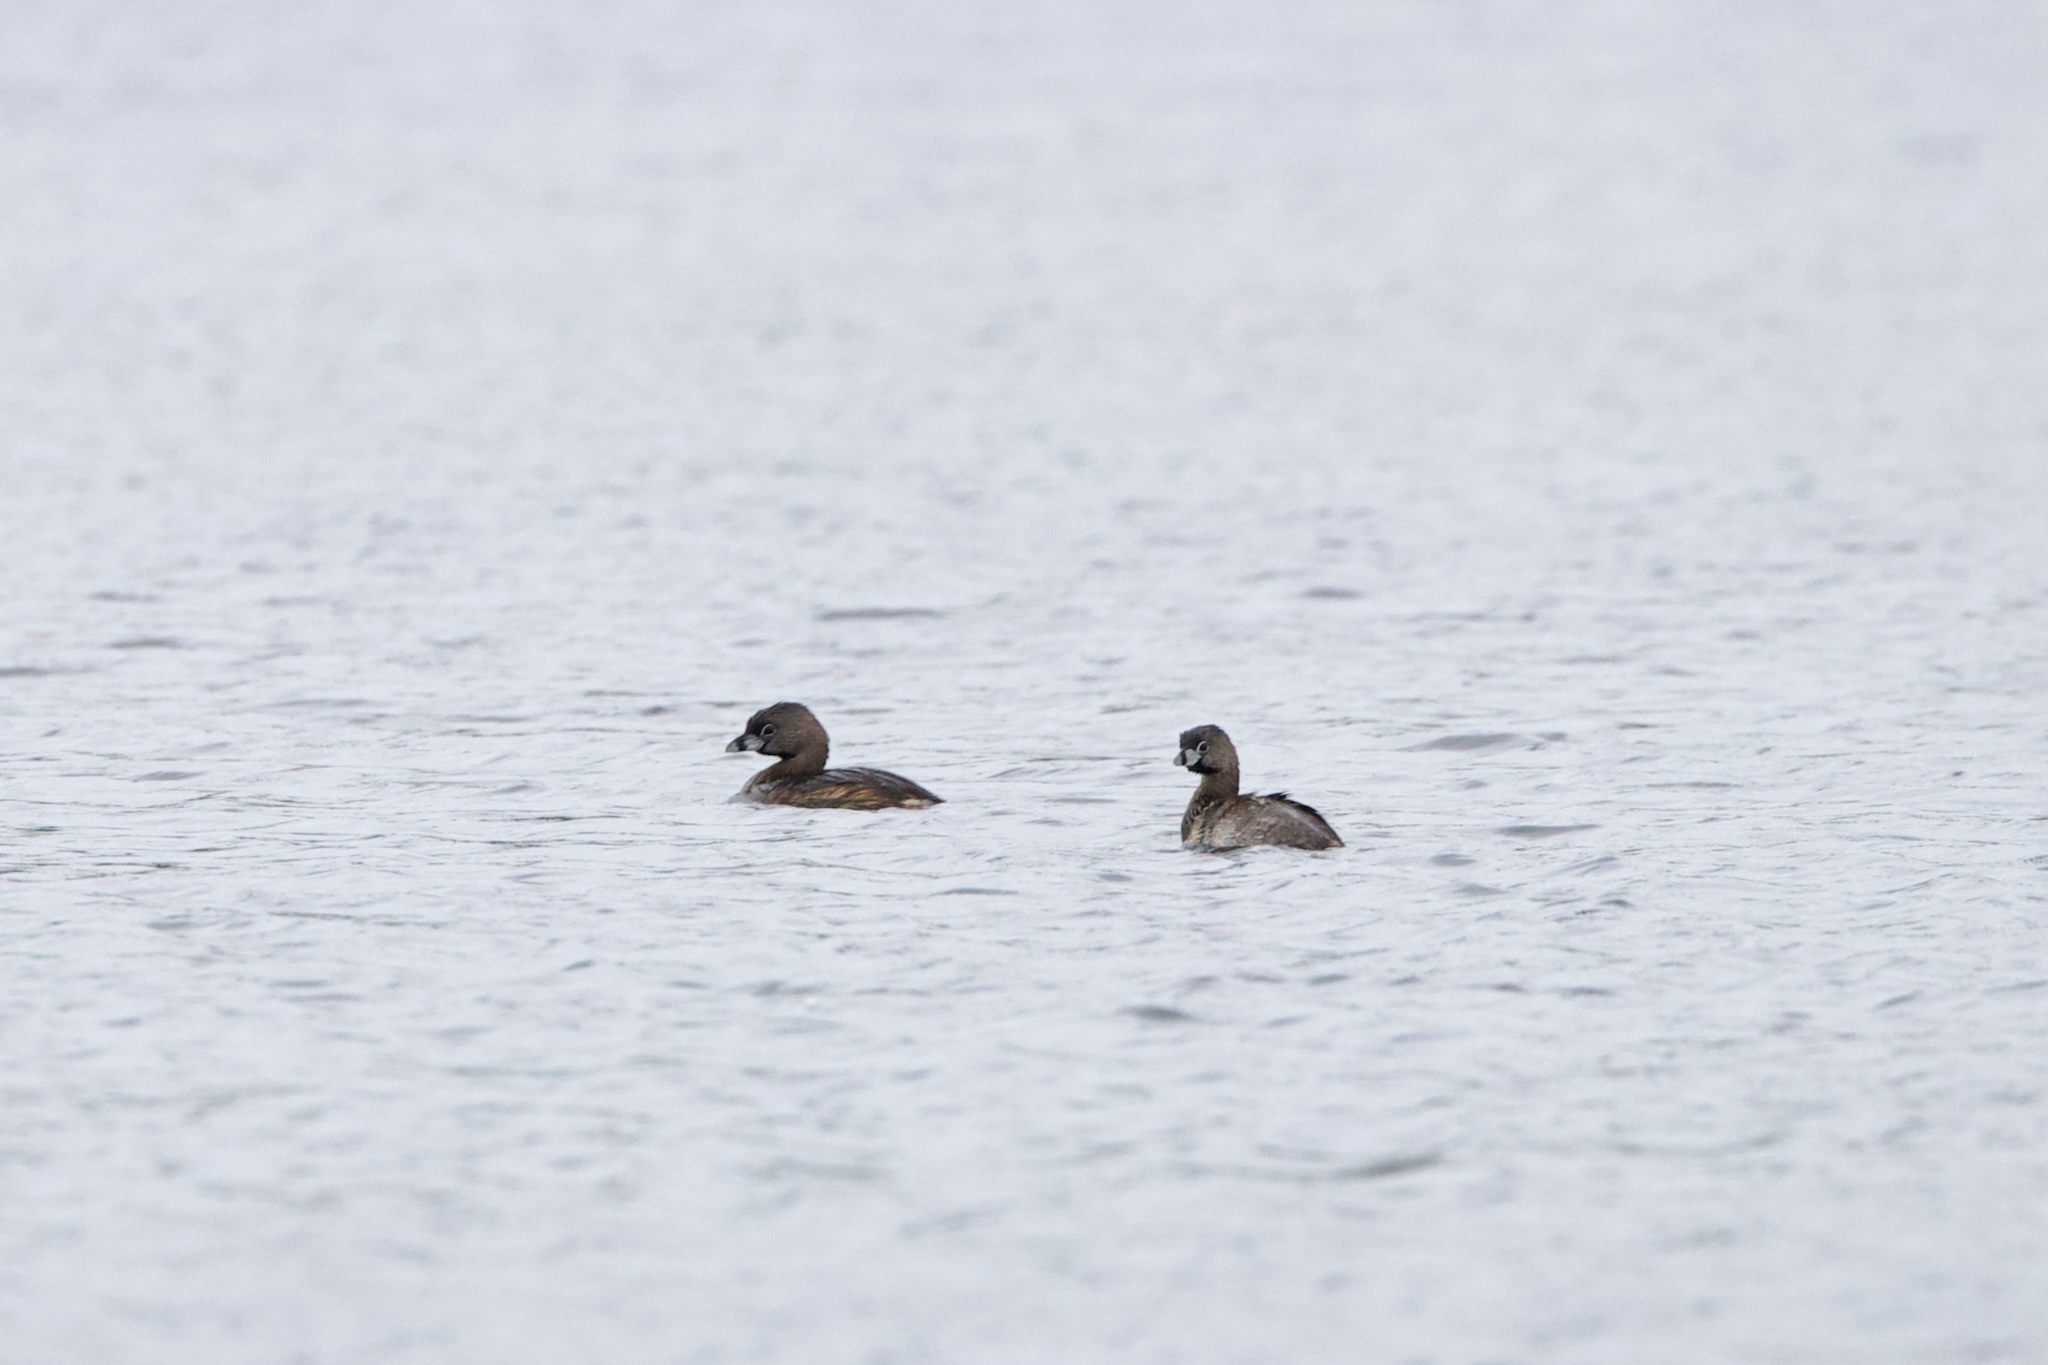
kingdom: Animalia
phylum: Chordata
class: Aves
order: Podicipediformes
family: Podicipedidae
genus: Podilymbus
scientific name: Podilymbus podiceps
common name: Pied-billed grebe
